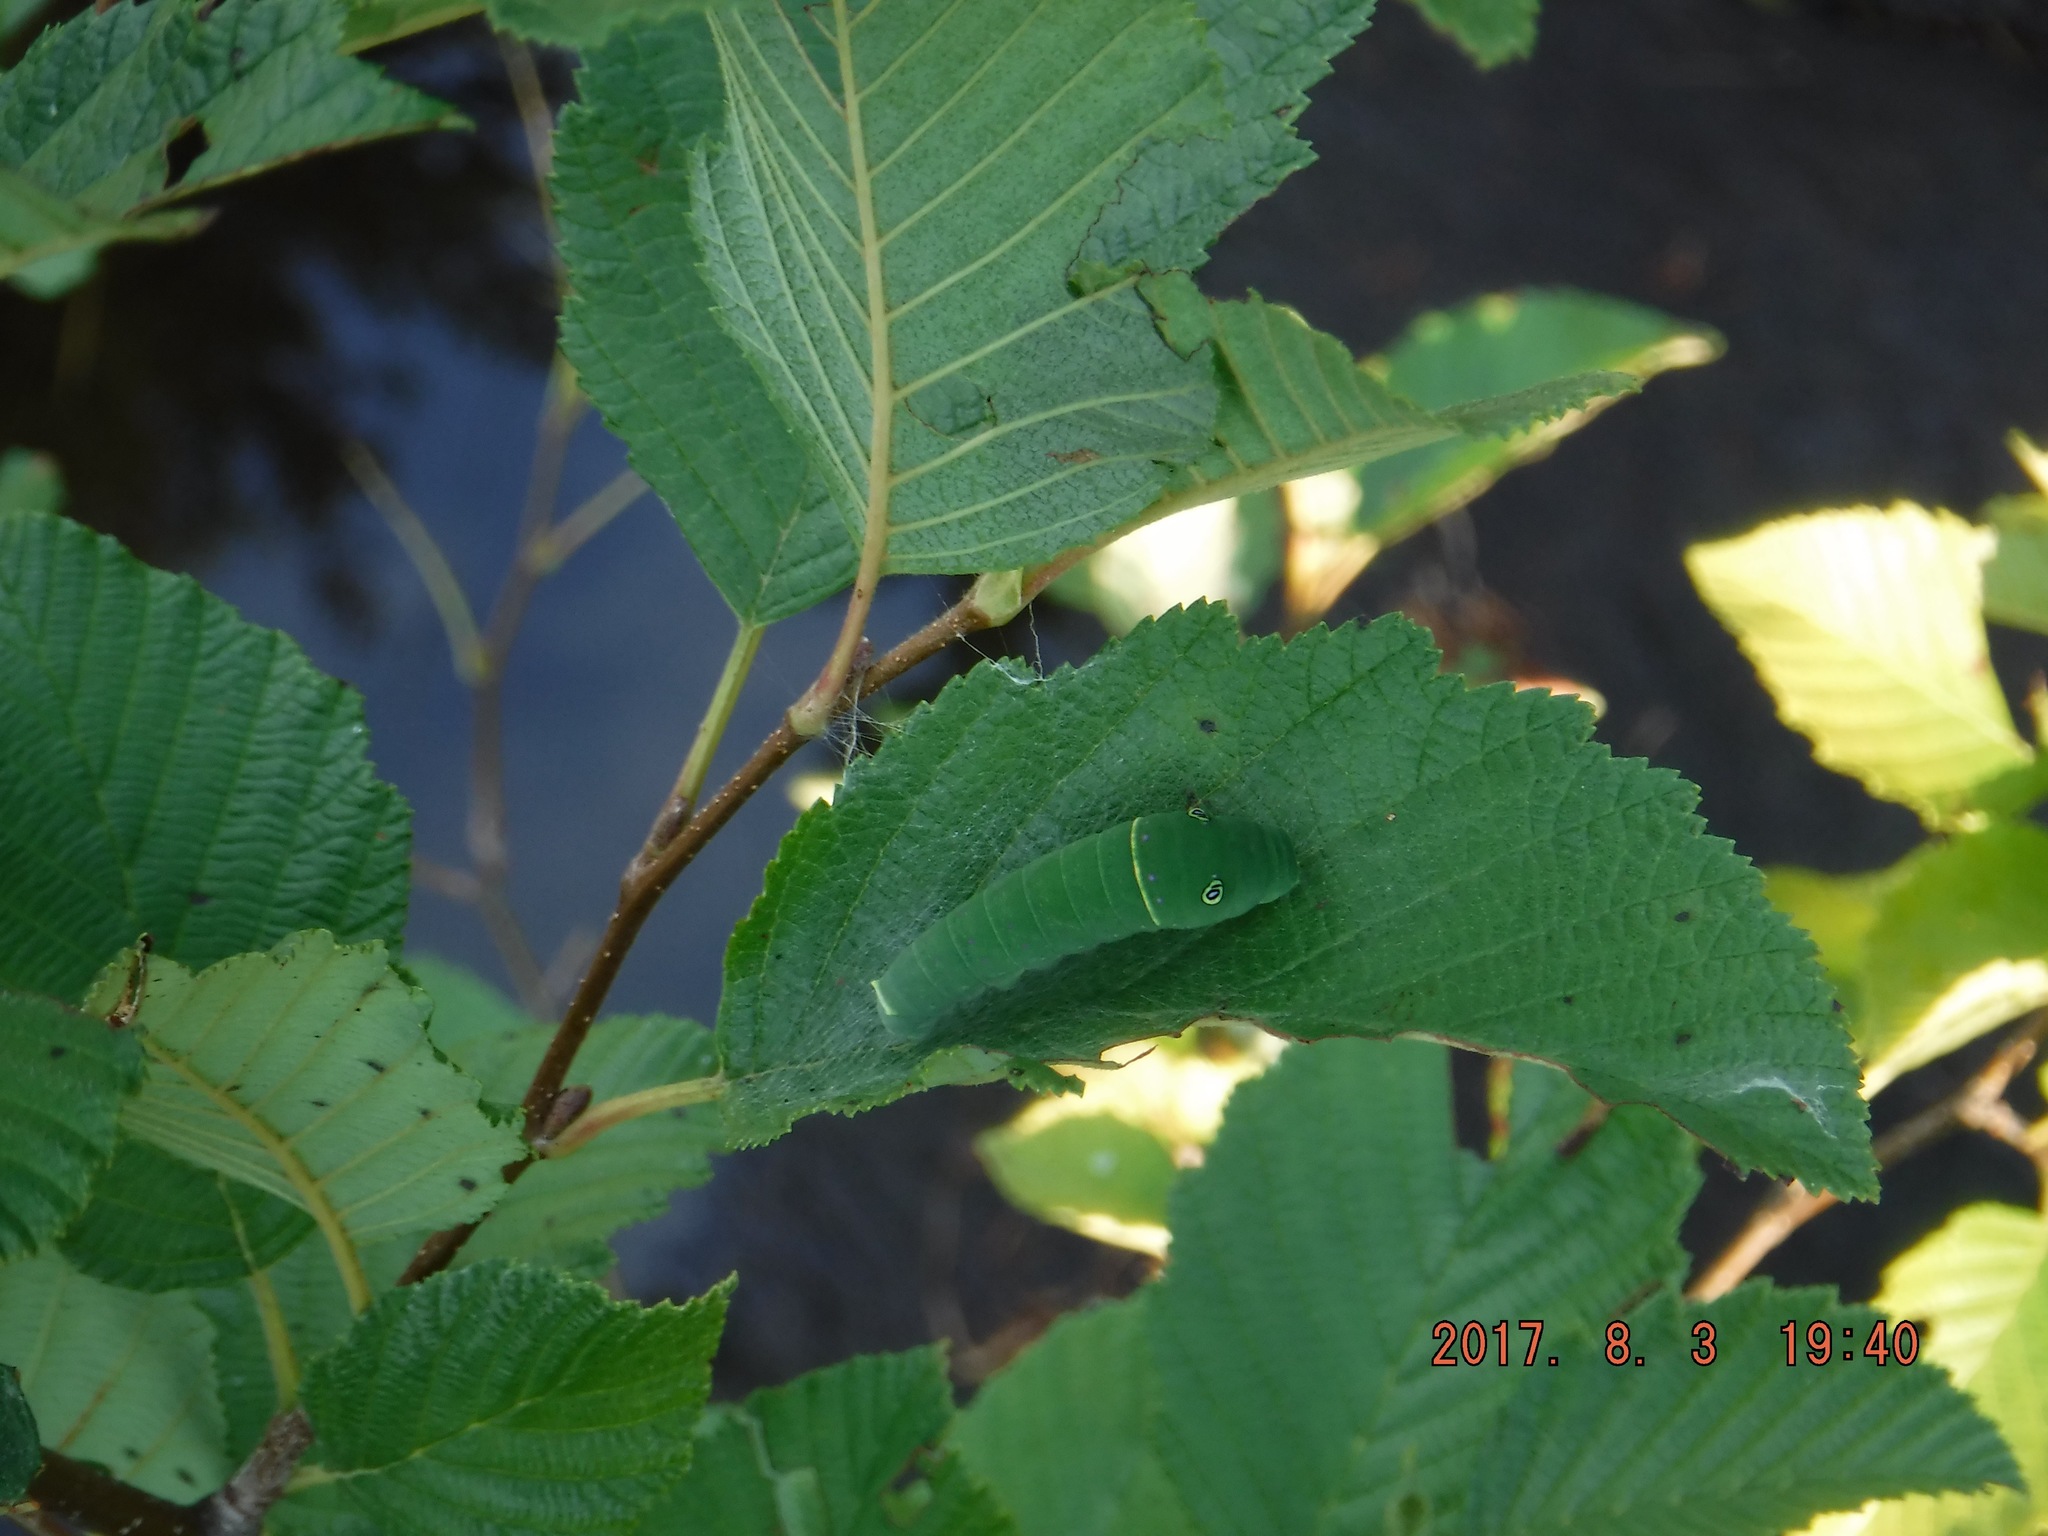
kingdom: Animalia
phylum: Arthropoda
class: Insecta
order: Lepidoptera
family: Papilionidae
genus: Papilio
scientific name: Papilio canadensis
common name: Canadian tiger swallowtail
